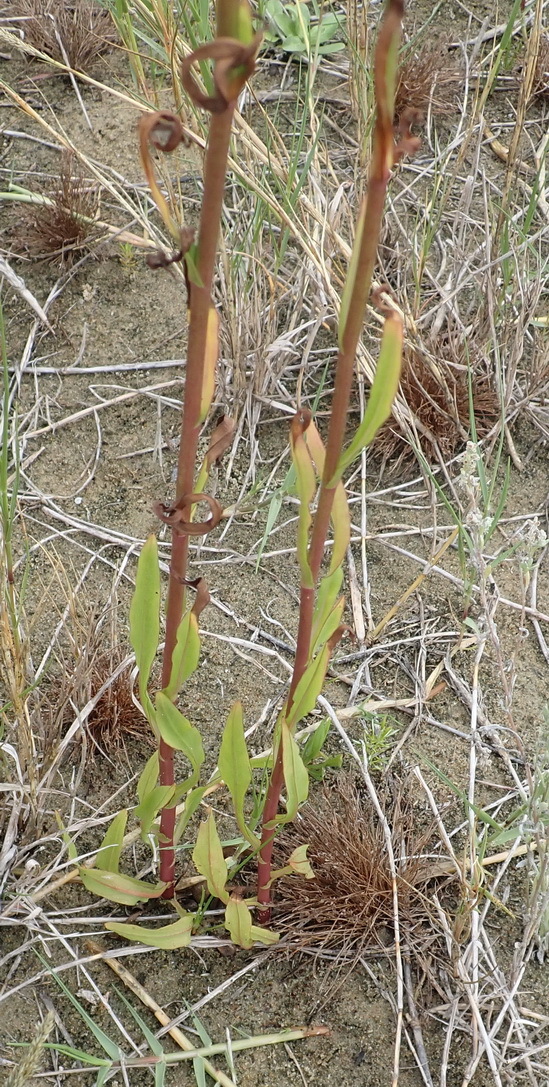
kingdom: Plantae
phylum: Tracheophyta
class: Magnoliopsida
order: Asterales
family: Asteraceae
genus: Symphyotrichum
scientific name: Symphyotrichum squamatum
